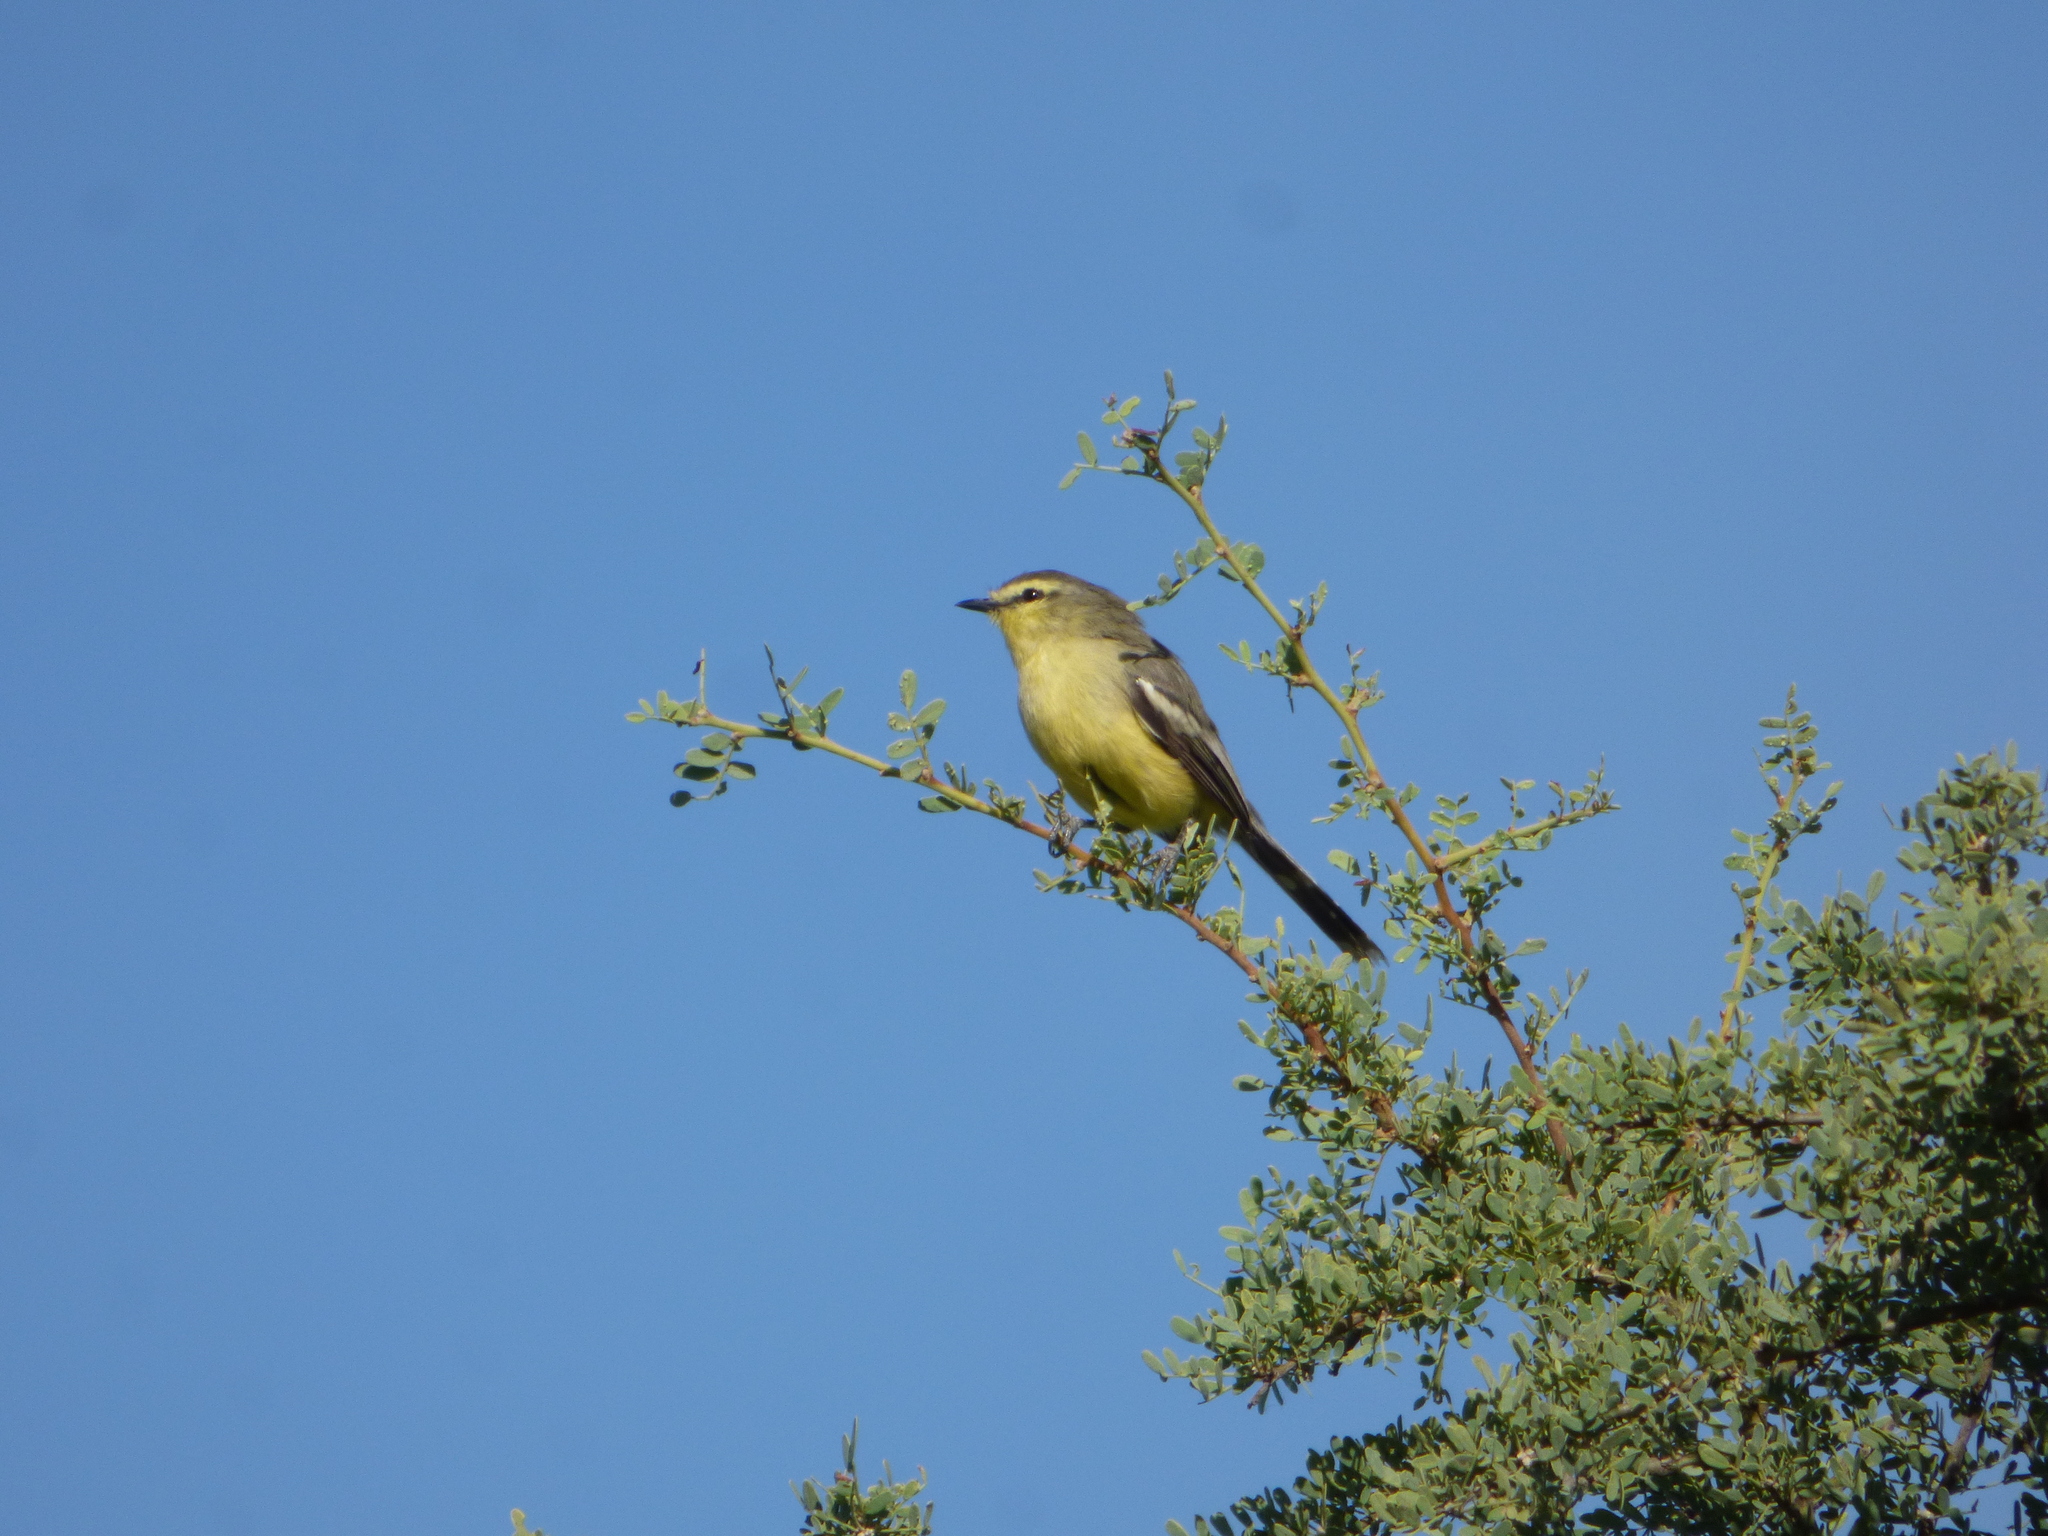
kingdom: Animalia
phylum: Chordata
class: Aves
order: Passeriformes
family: Tyrannidae
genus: Stigmatura
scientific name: Stigmatura budytoides
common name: Greater wagtail-tyrant
